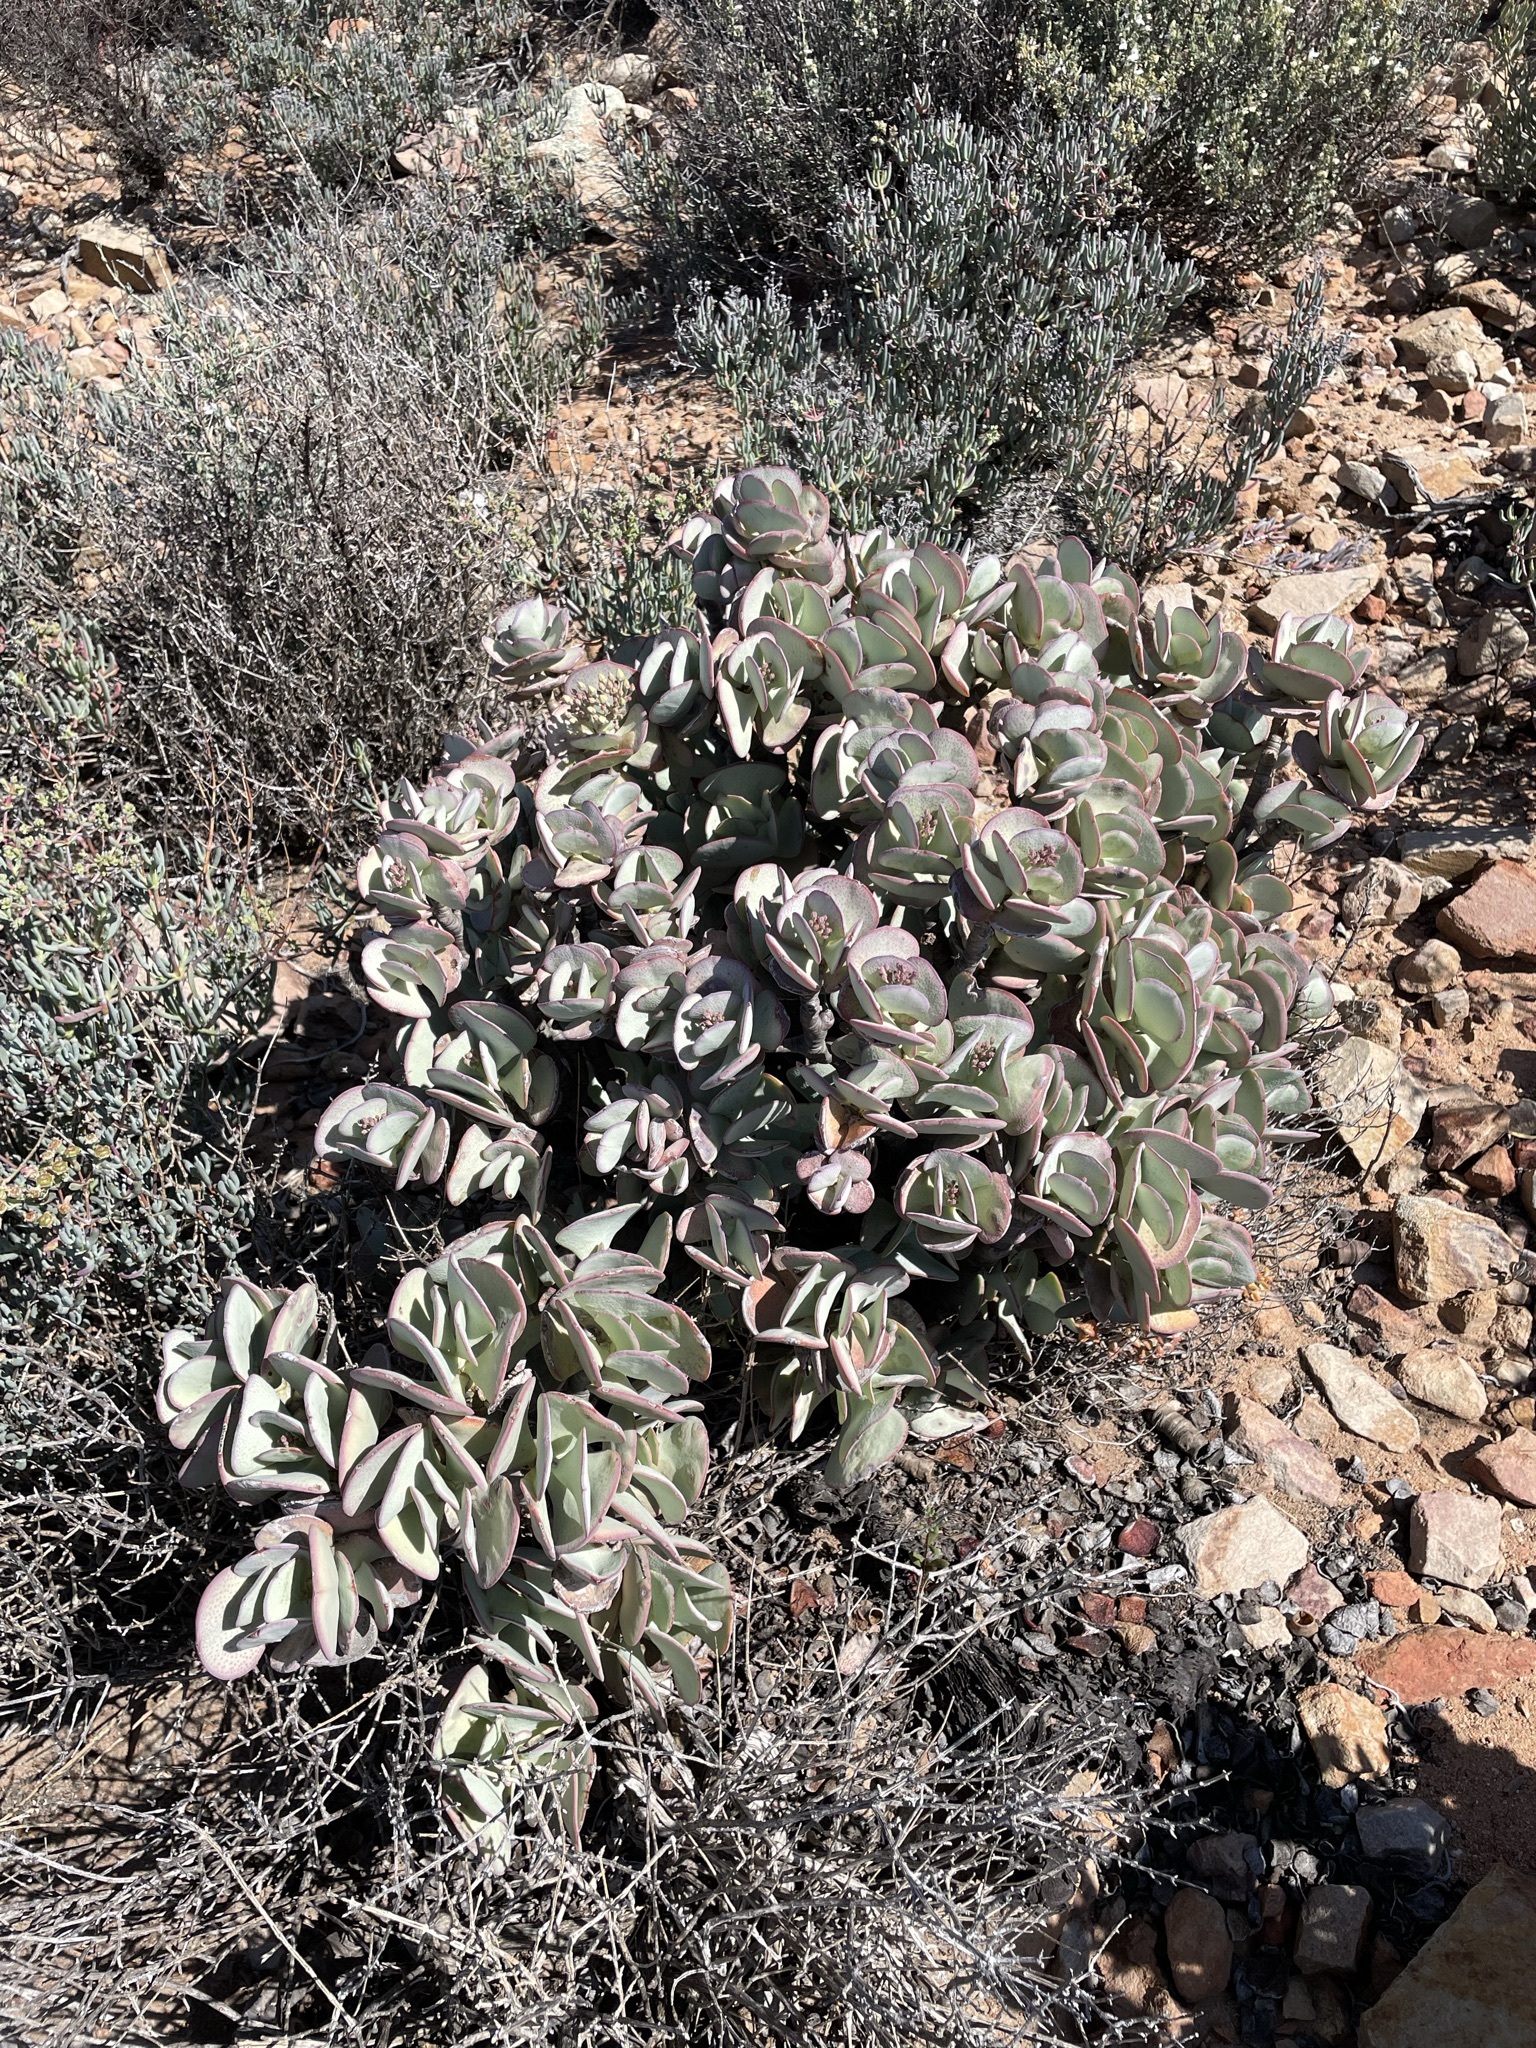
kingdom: Plantae
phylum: Tracheophyta
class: Magnoliopsida
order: Saxifragales
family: Crassulaceae
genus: Crassula
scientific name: Crassula arborescens
